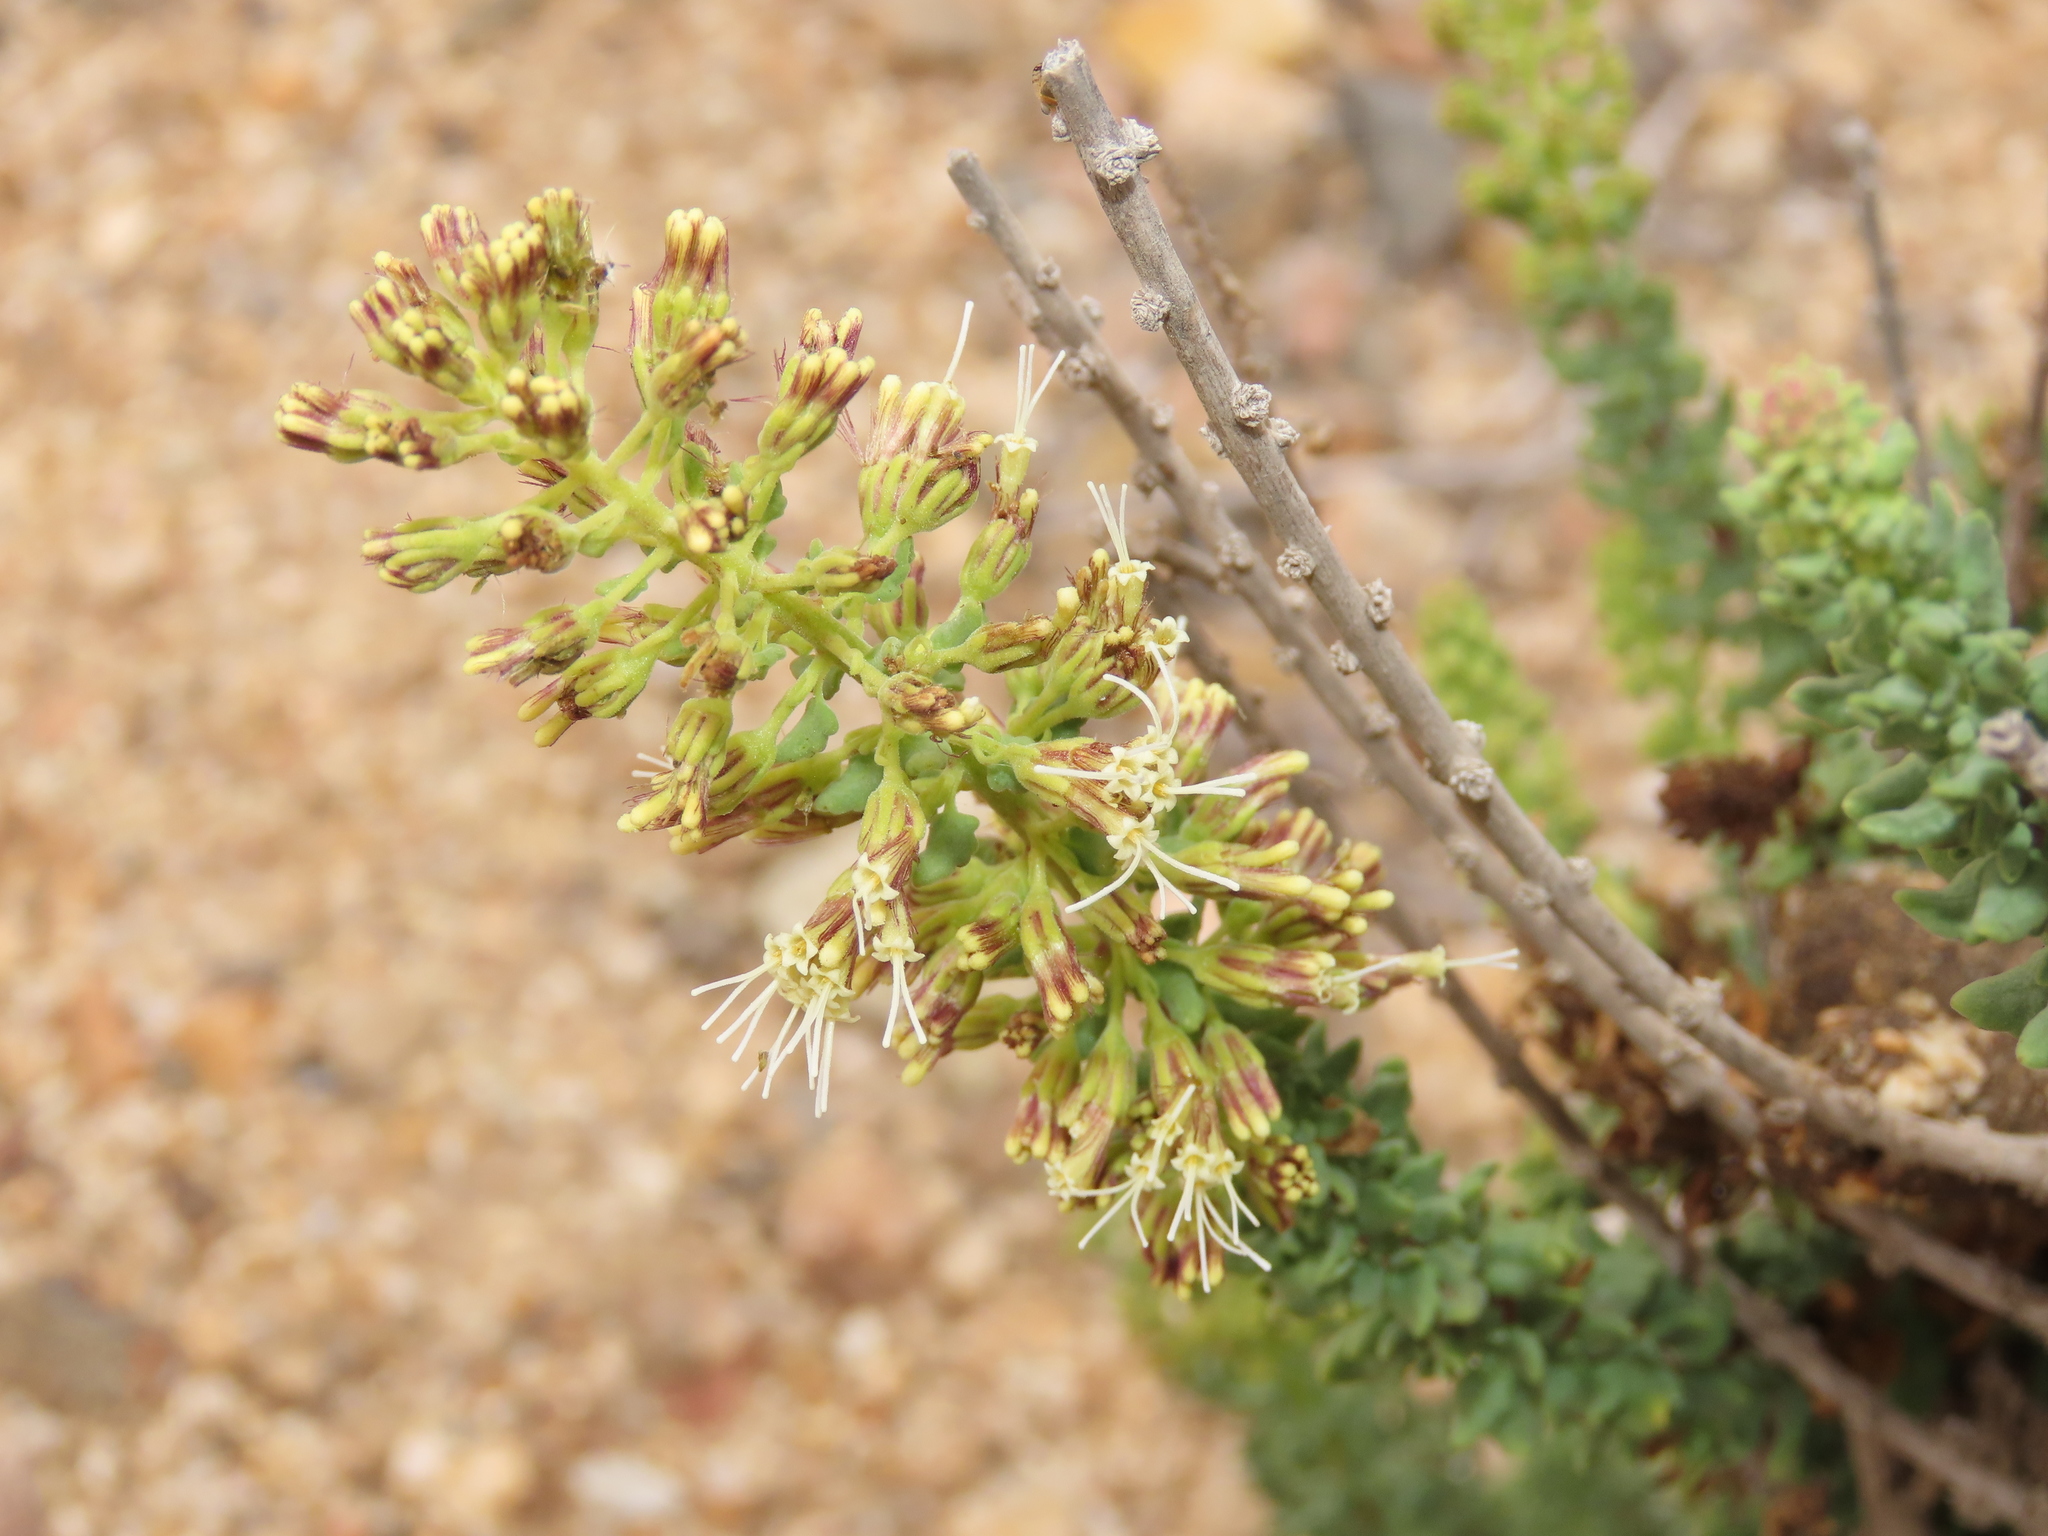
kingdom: Plantae
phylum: Tracheophyta
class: Magnoliopsida
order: Asterales
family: Asteraceae
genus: Ophryosporus
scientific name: Ophryosporus triangularis
